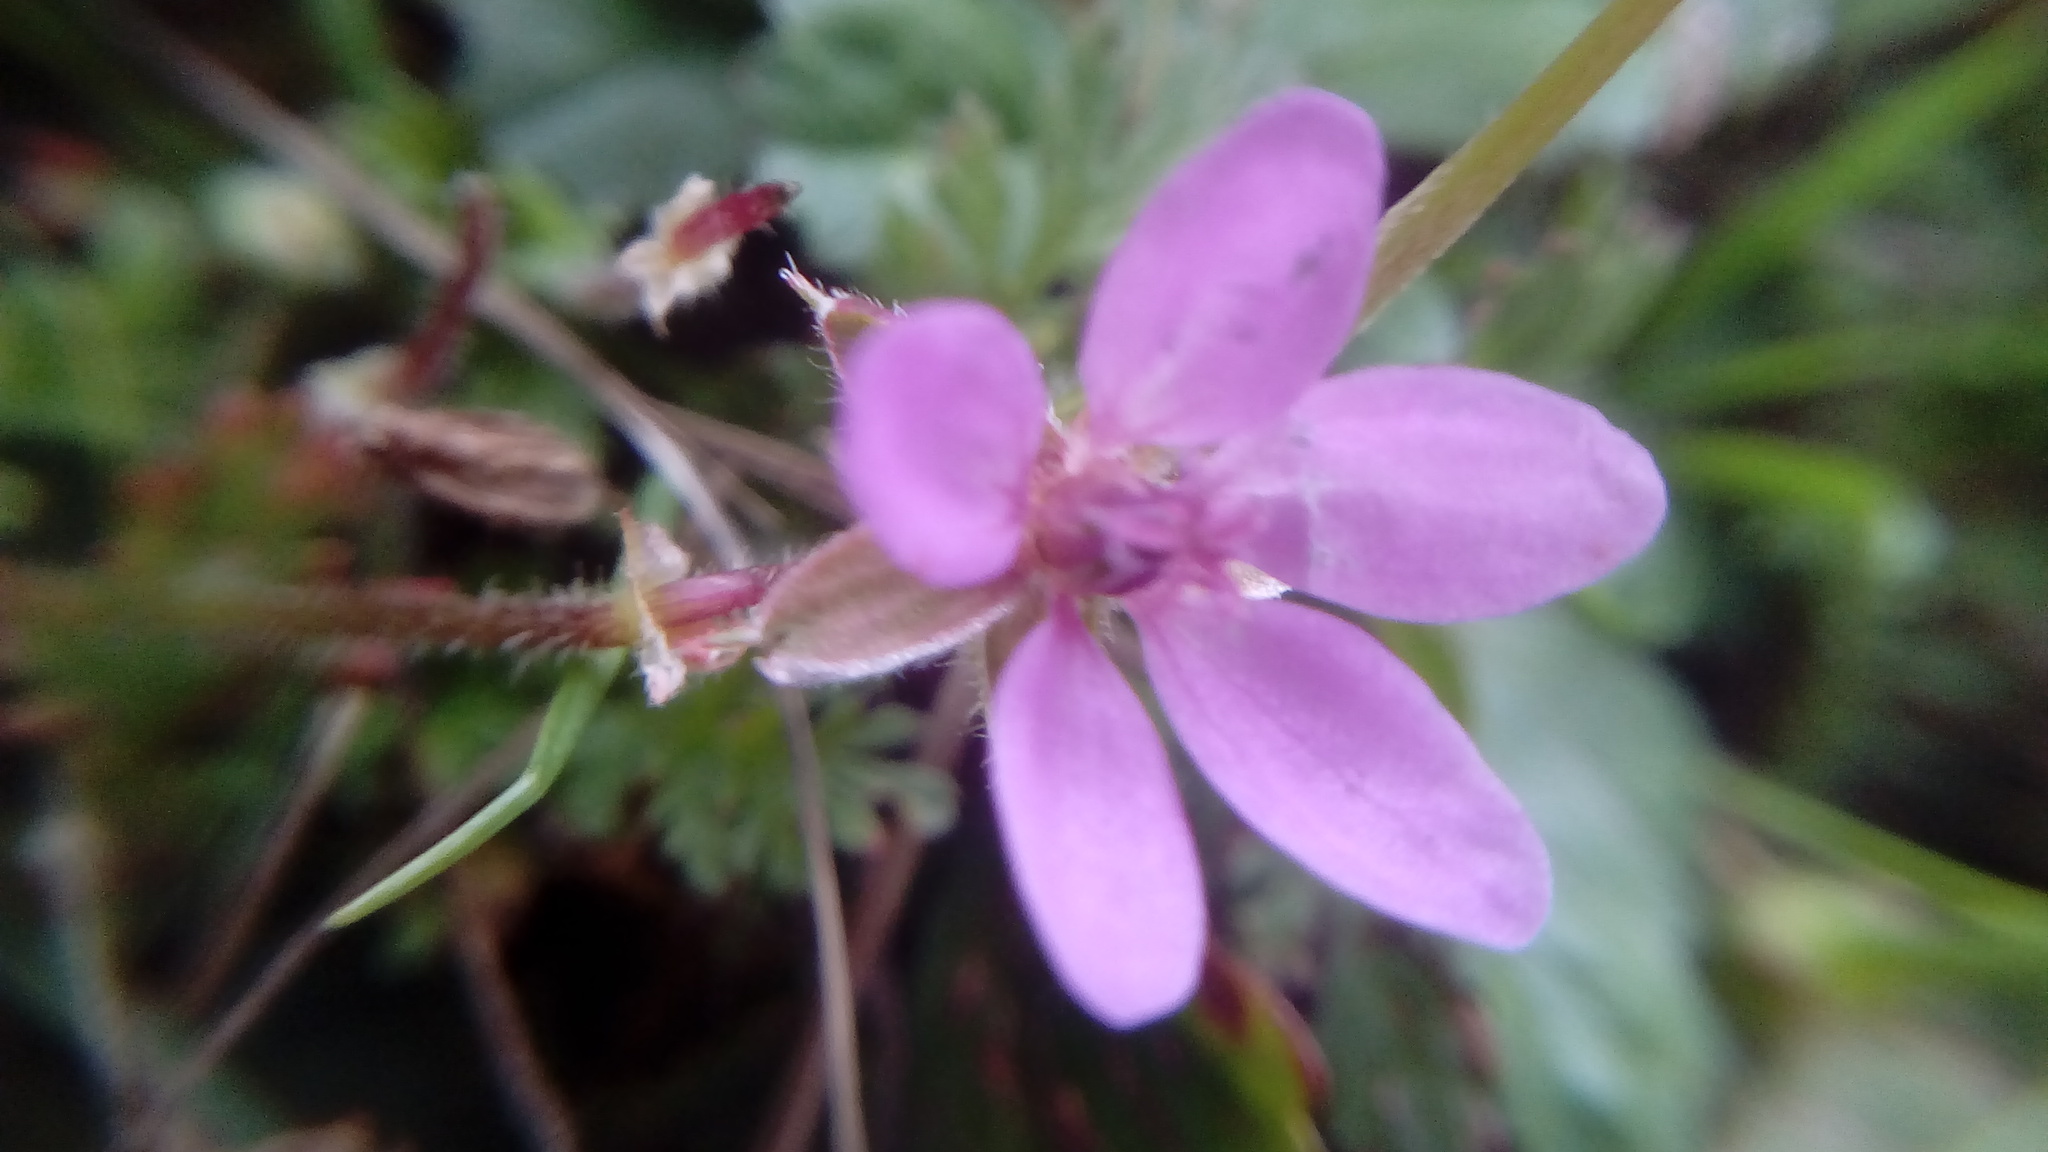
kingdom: Plantae
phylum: Tracheophyta
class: Magnoliopsida
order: Geraniales
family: Geraniaceae
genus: Erodium
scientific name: Erodium cicutarium
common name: Common stork's-bill
